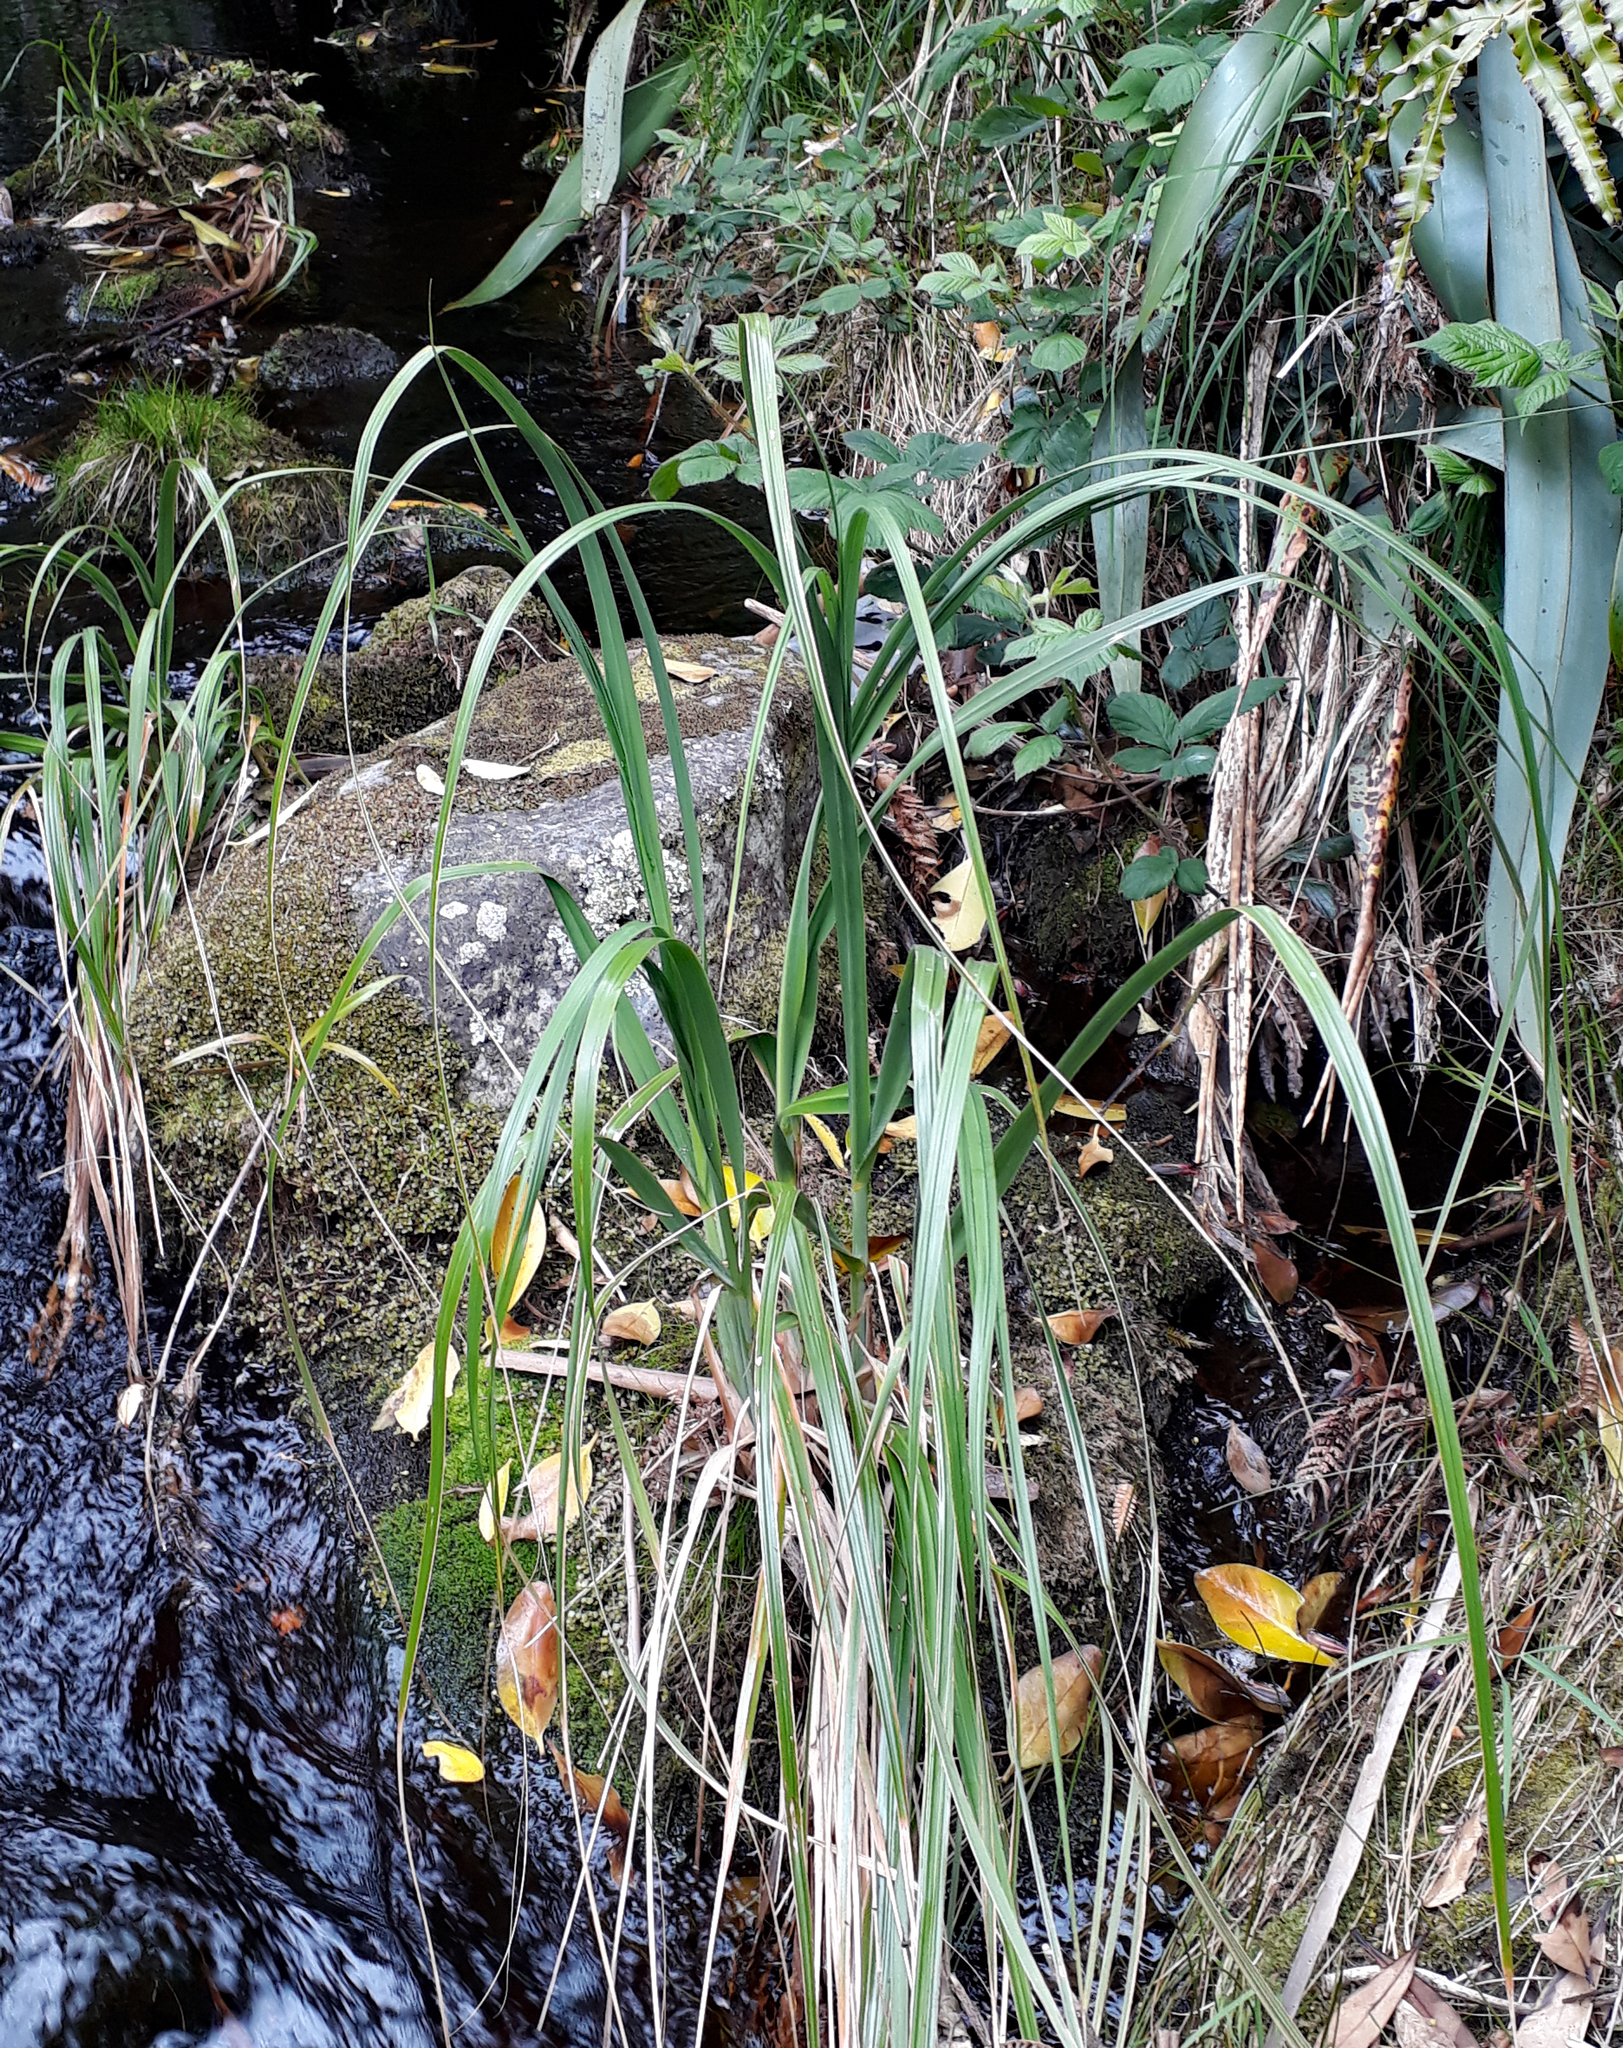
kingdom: Plantae
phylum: Tracheophyta
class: Liliopsida
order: Poales
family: Poaceae
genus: Austroderia
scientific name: Austroderia turbaria
